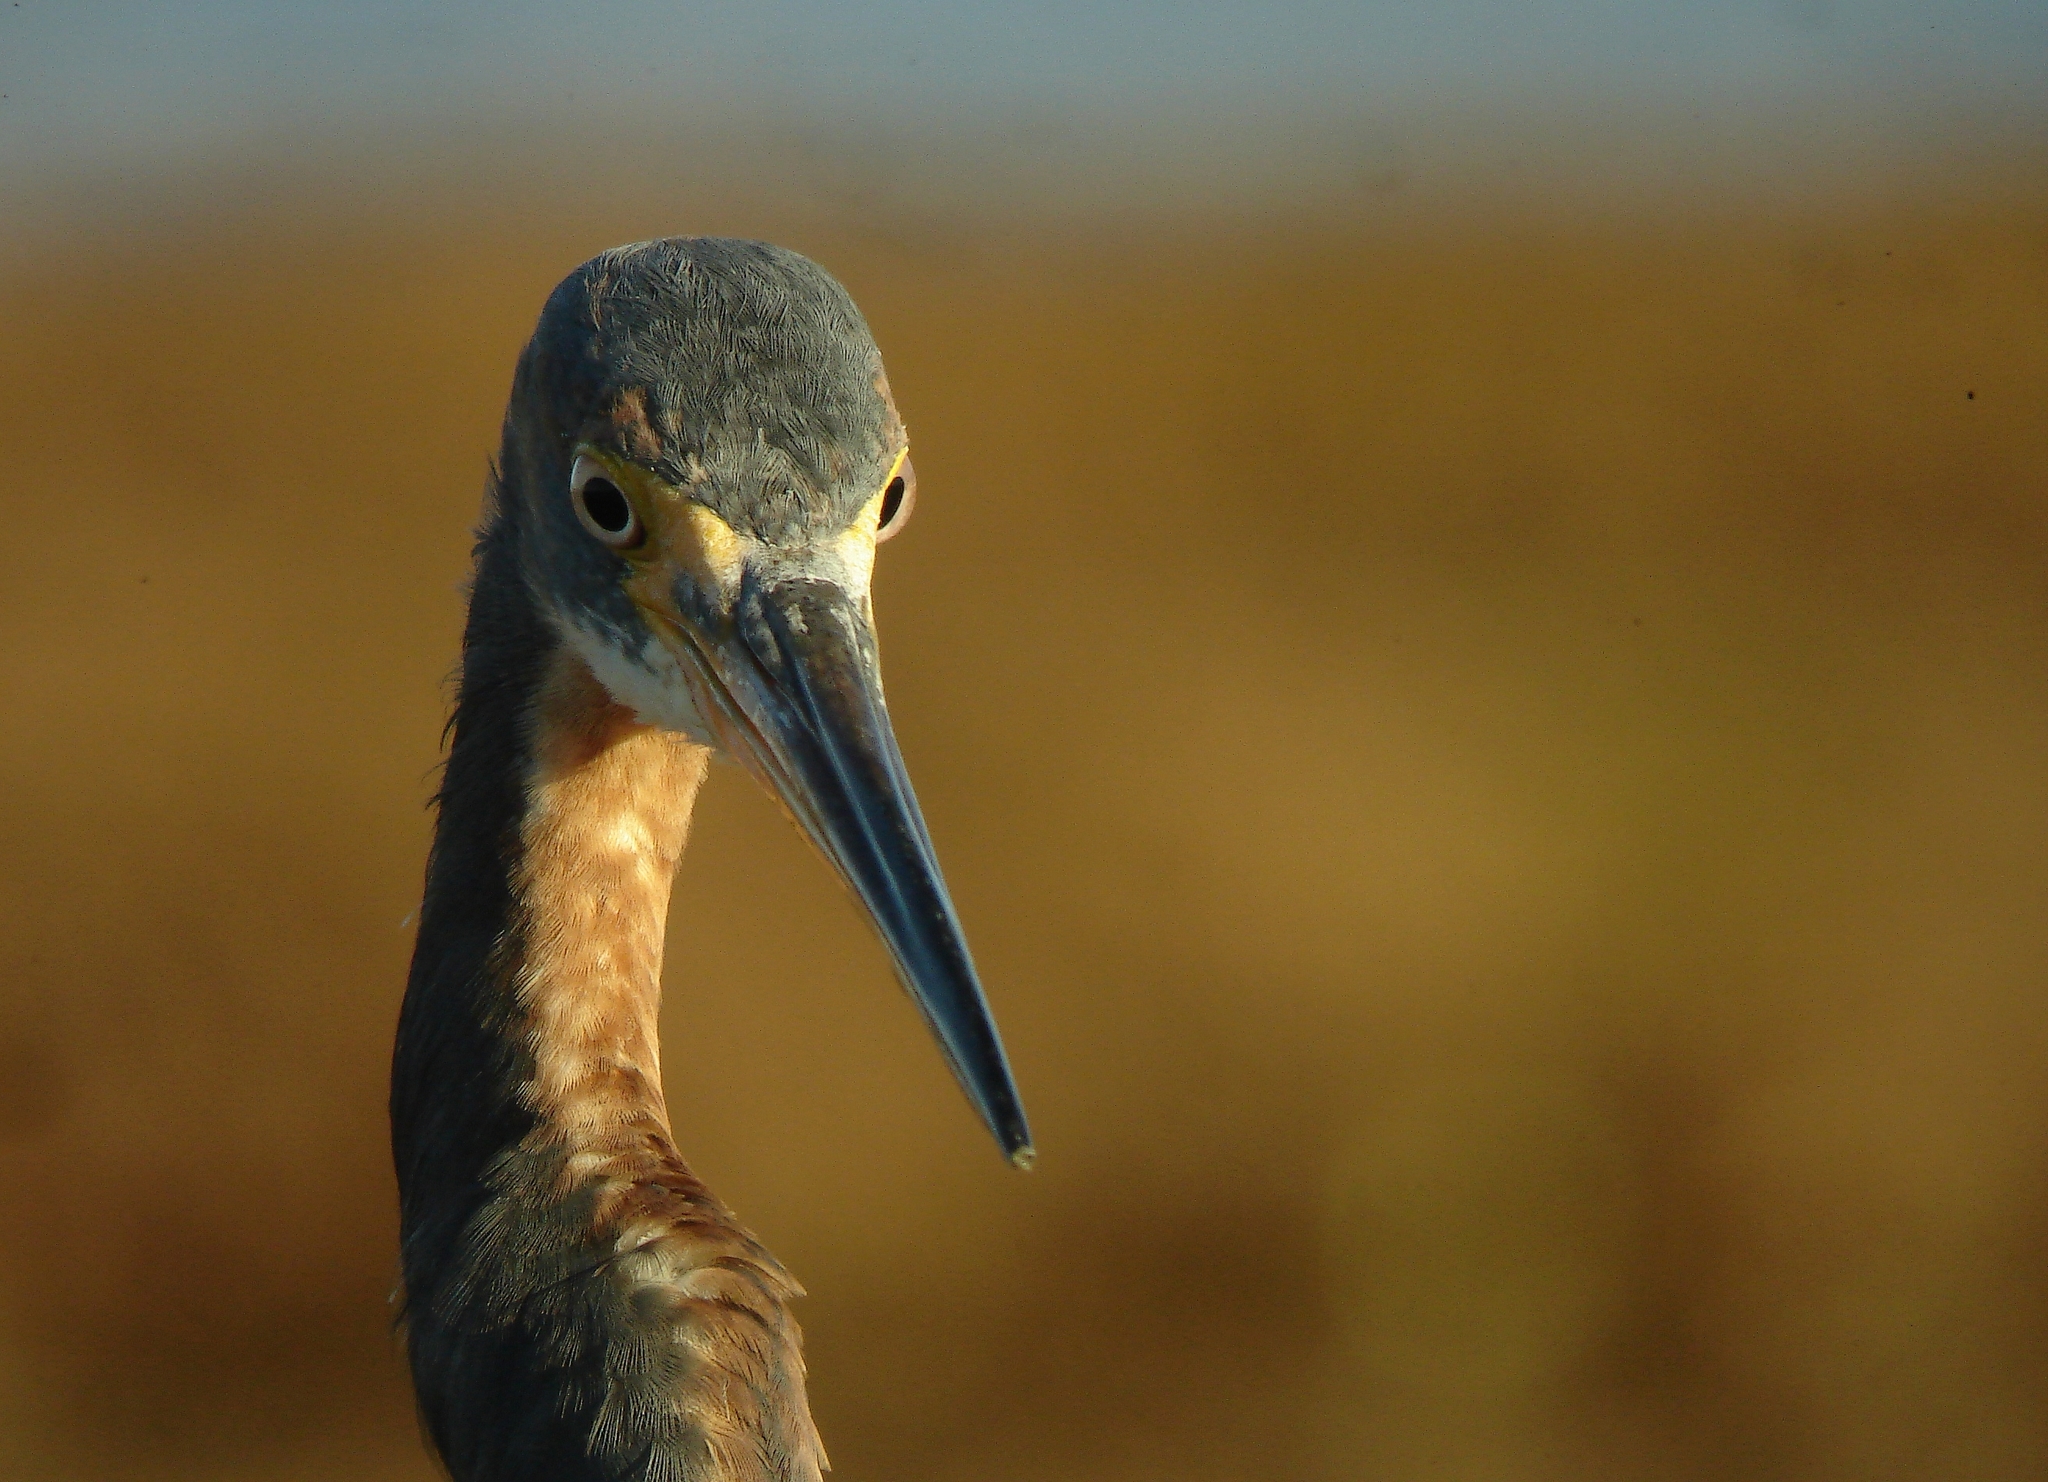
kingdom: Animalia
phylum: Chordata
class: Aves
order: Pelecaniformes
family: Ardeidae
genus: Egretta
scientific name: Egretta tricolor
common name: Tricolored heron
